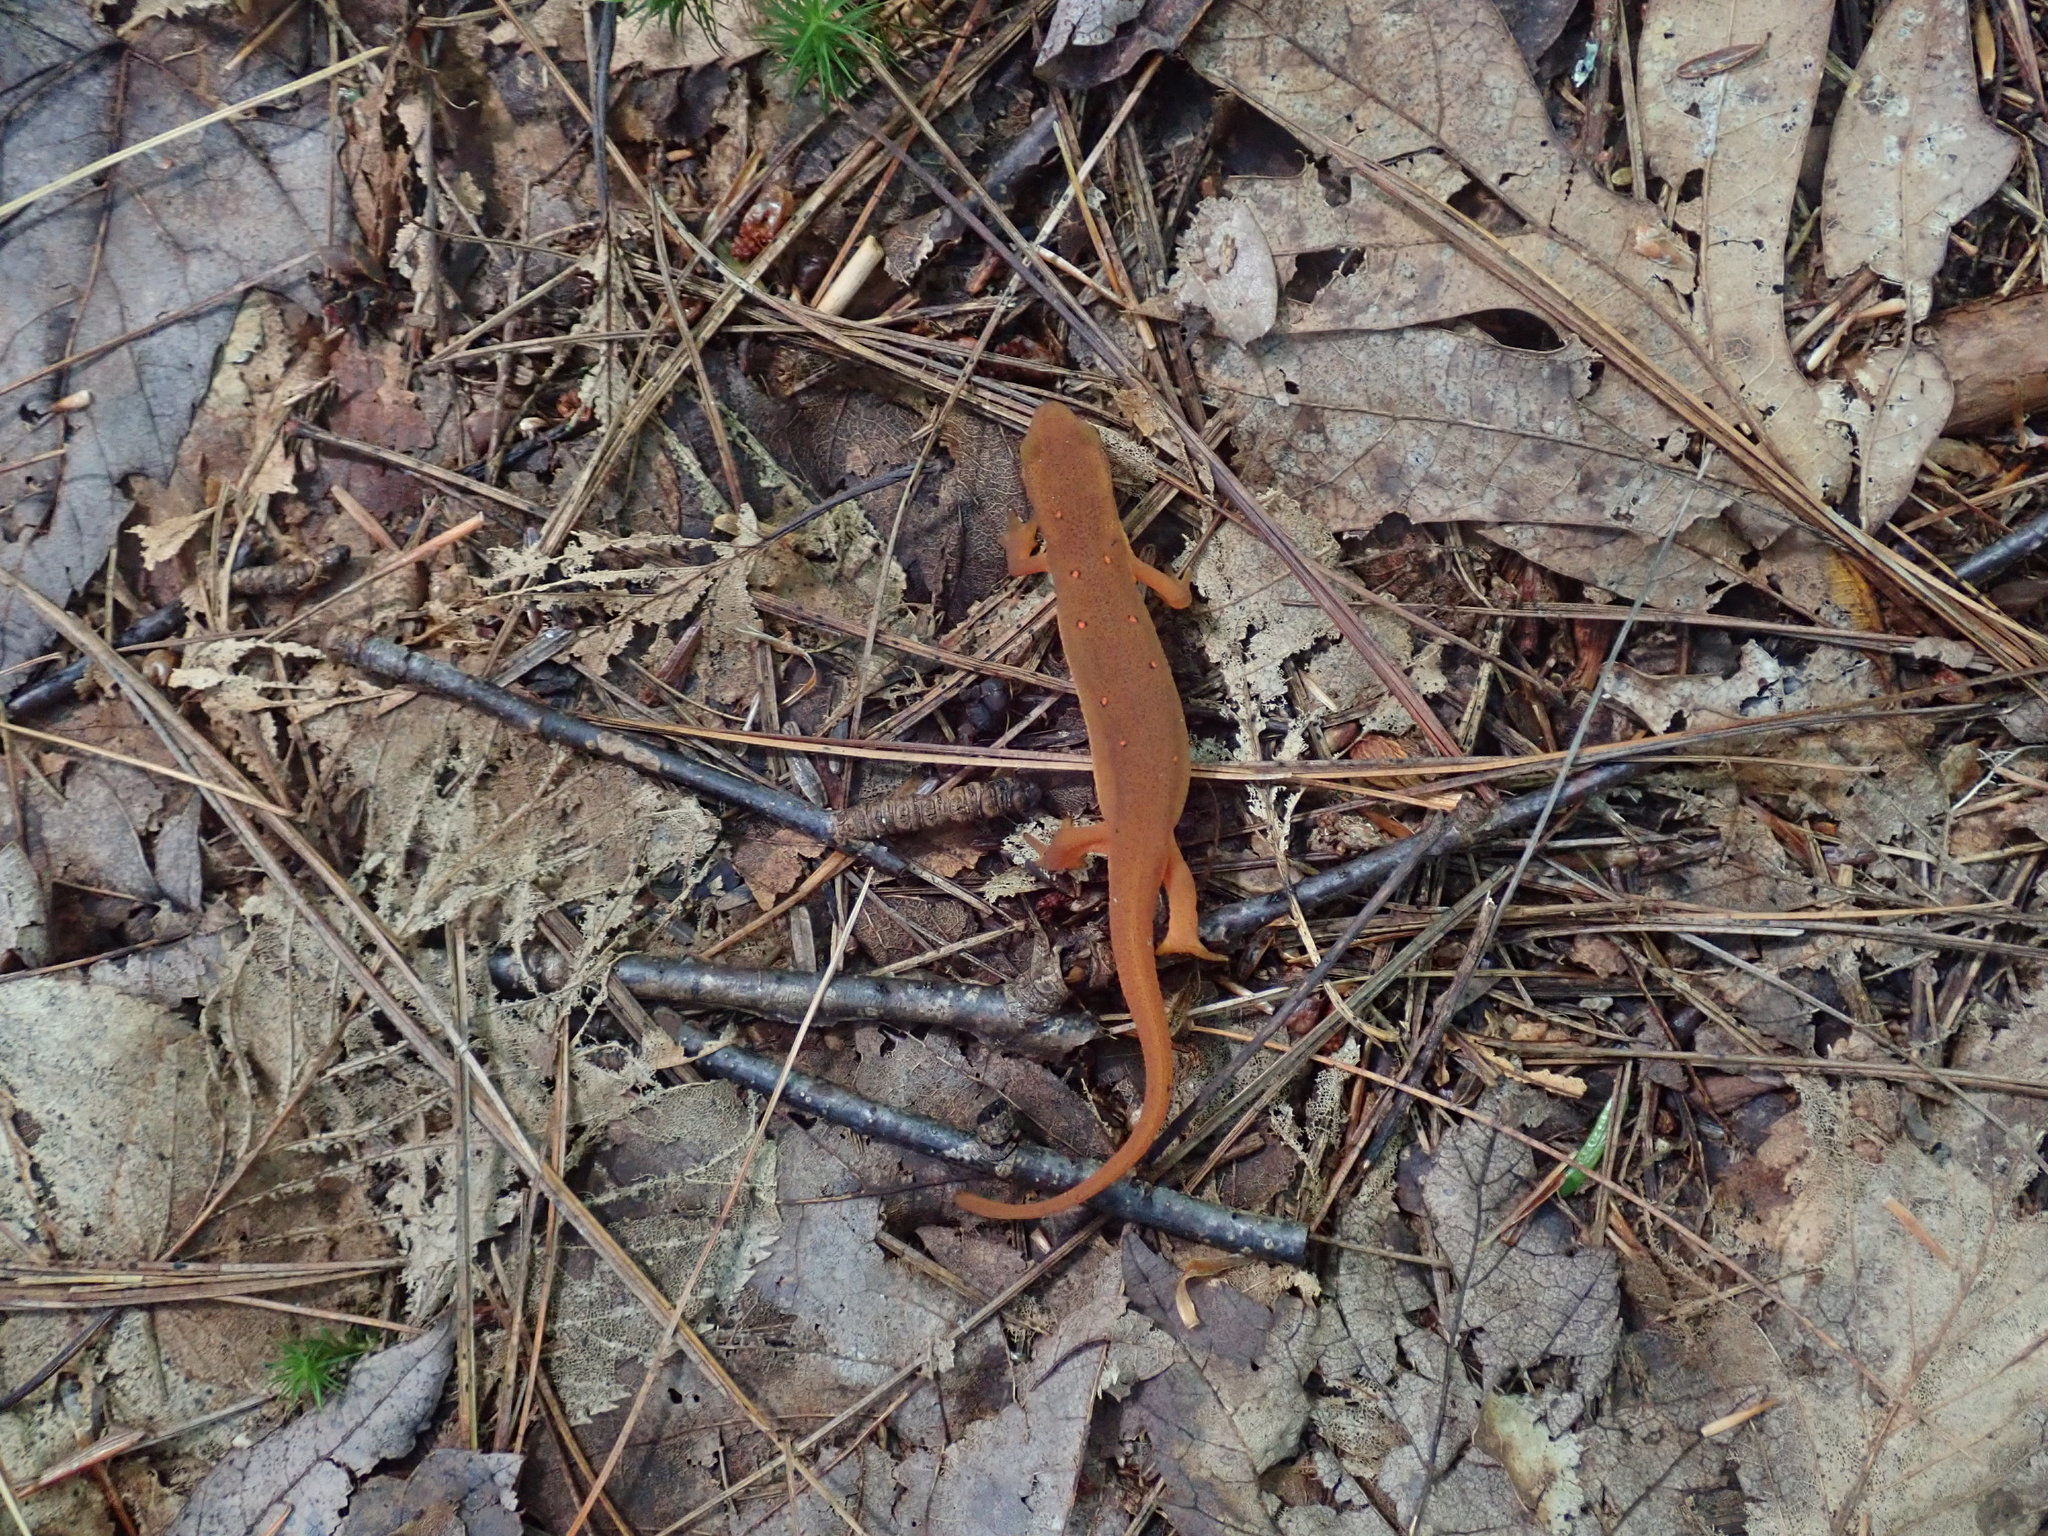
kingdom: Animalia
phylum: Chordata
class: Amphibia
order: Caudata
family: Salamandridae
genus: Notophthalmus
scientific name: Notophthalmus viridescens
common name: Eastern newt
